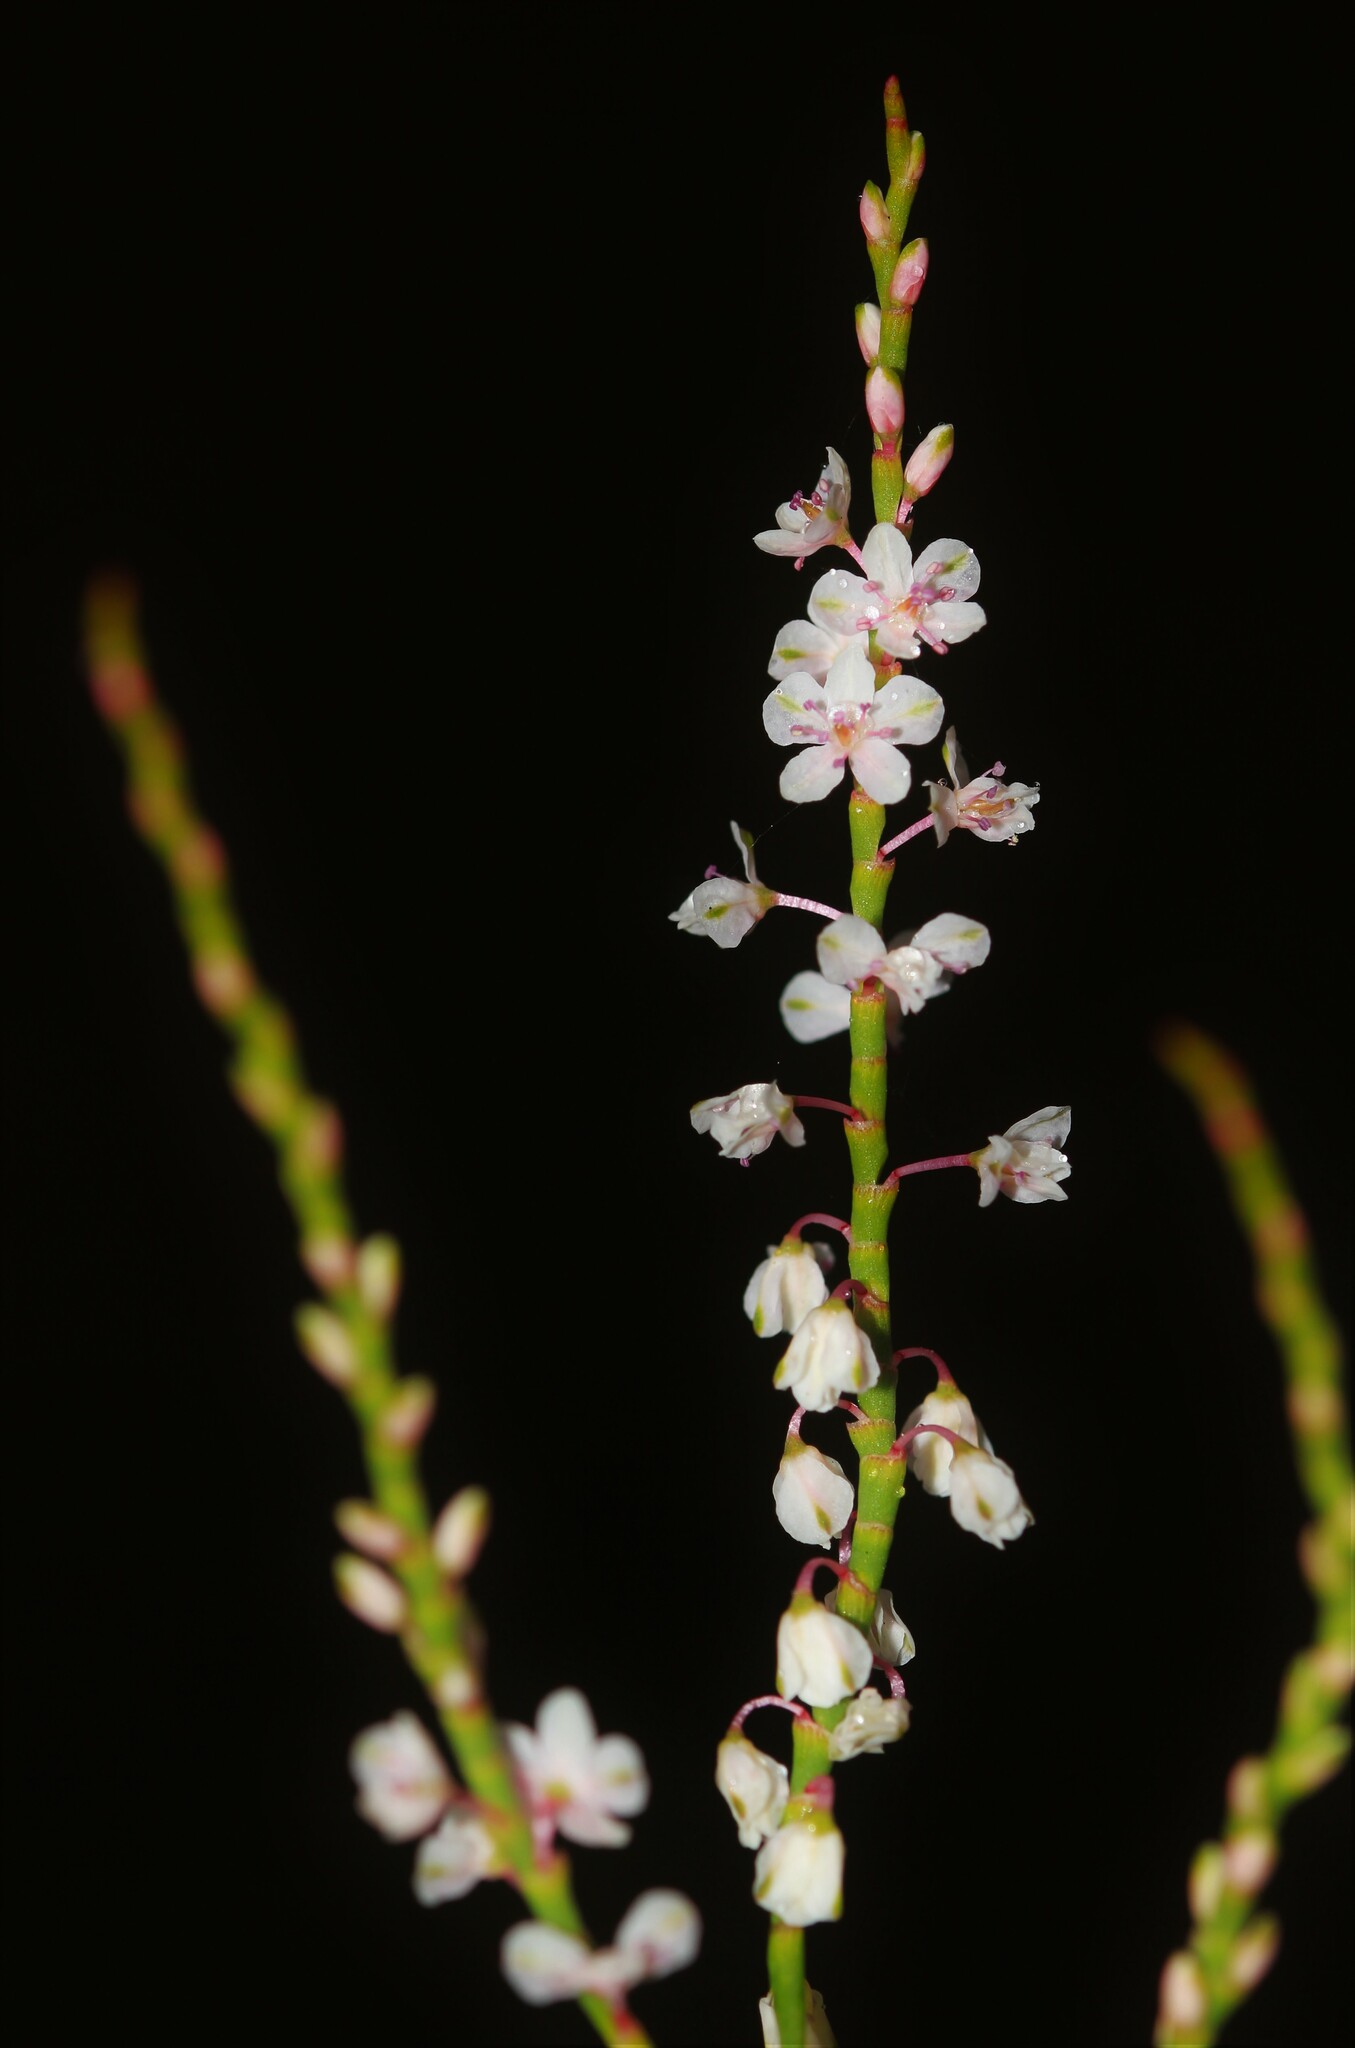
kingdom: Plantae
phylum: Tracheophyta
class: Magnoliopsida
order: Caryophyllales
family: Polygonaceae
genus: Polygonella
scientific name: Polygonella articulata
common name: Coastal jointweed
